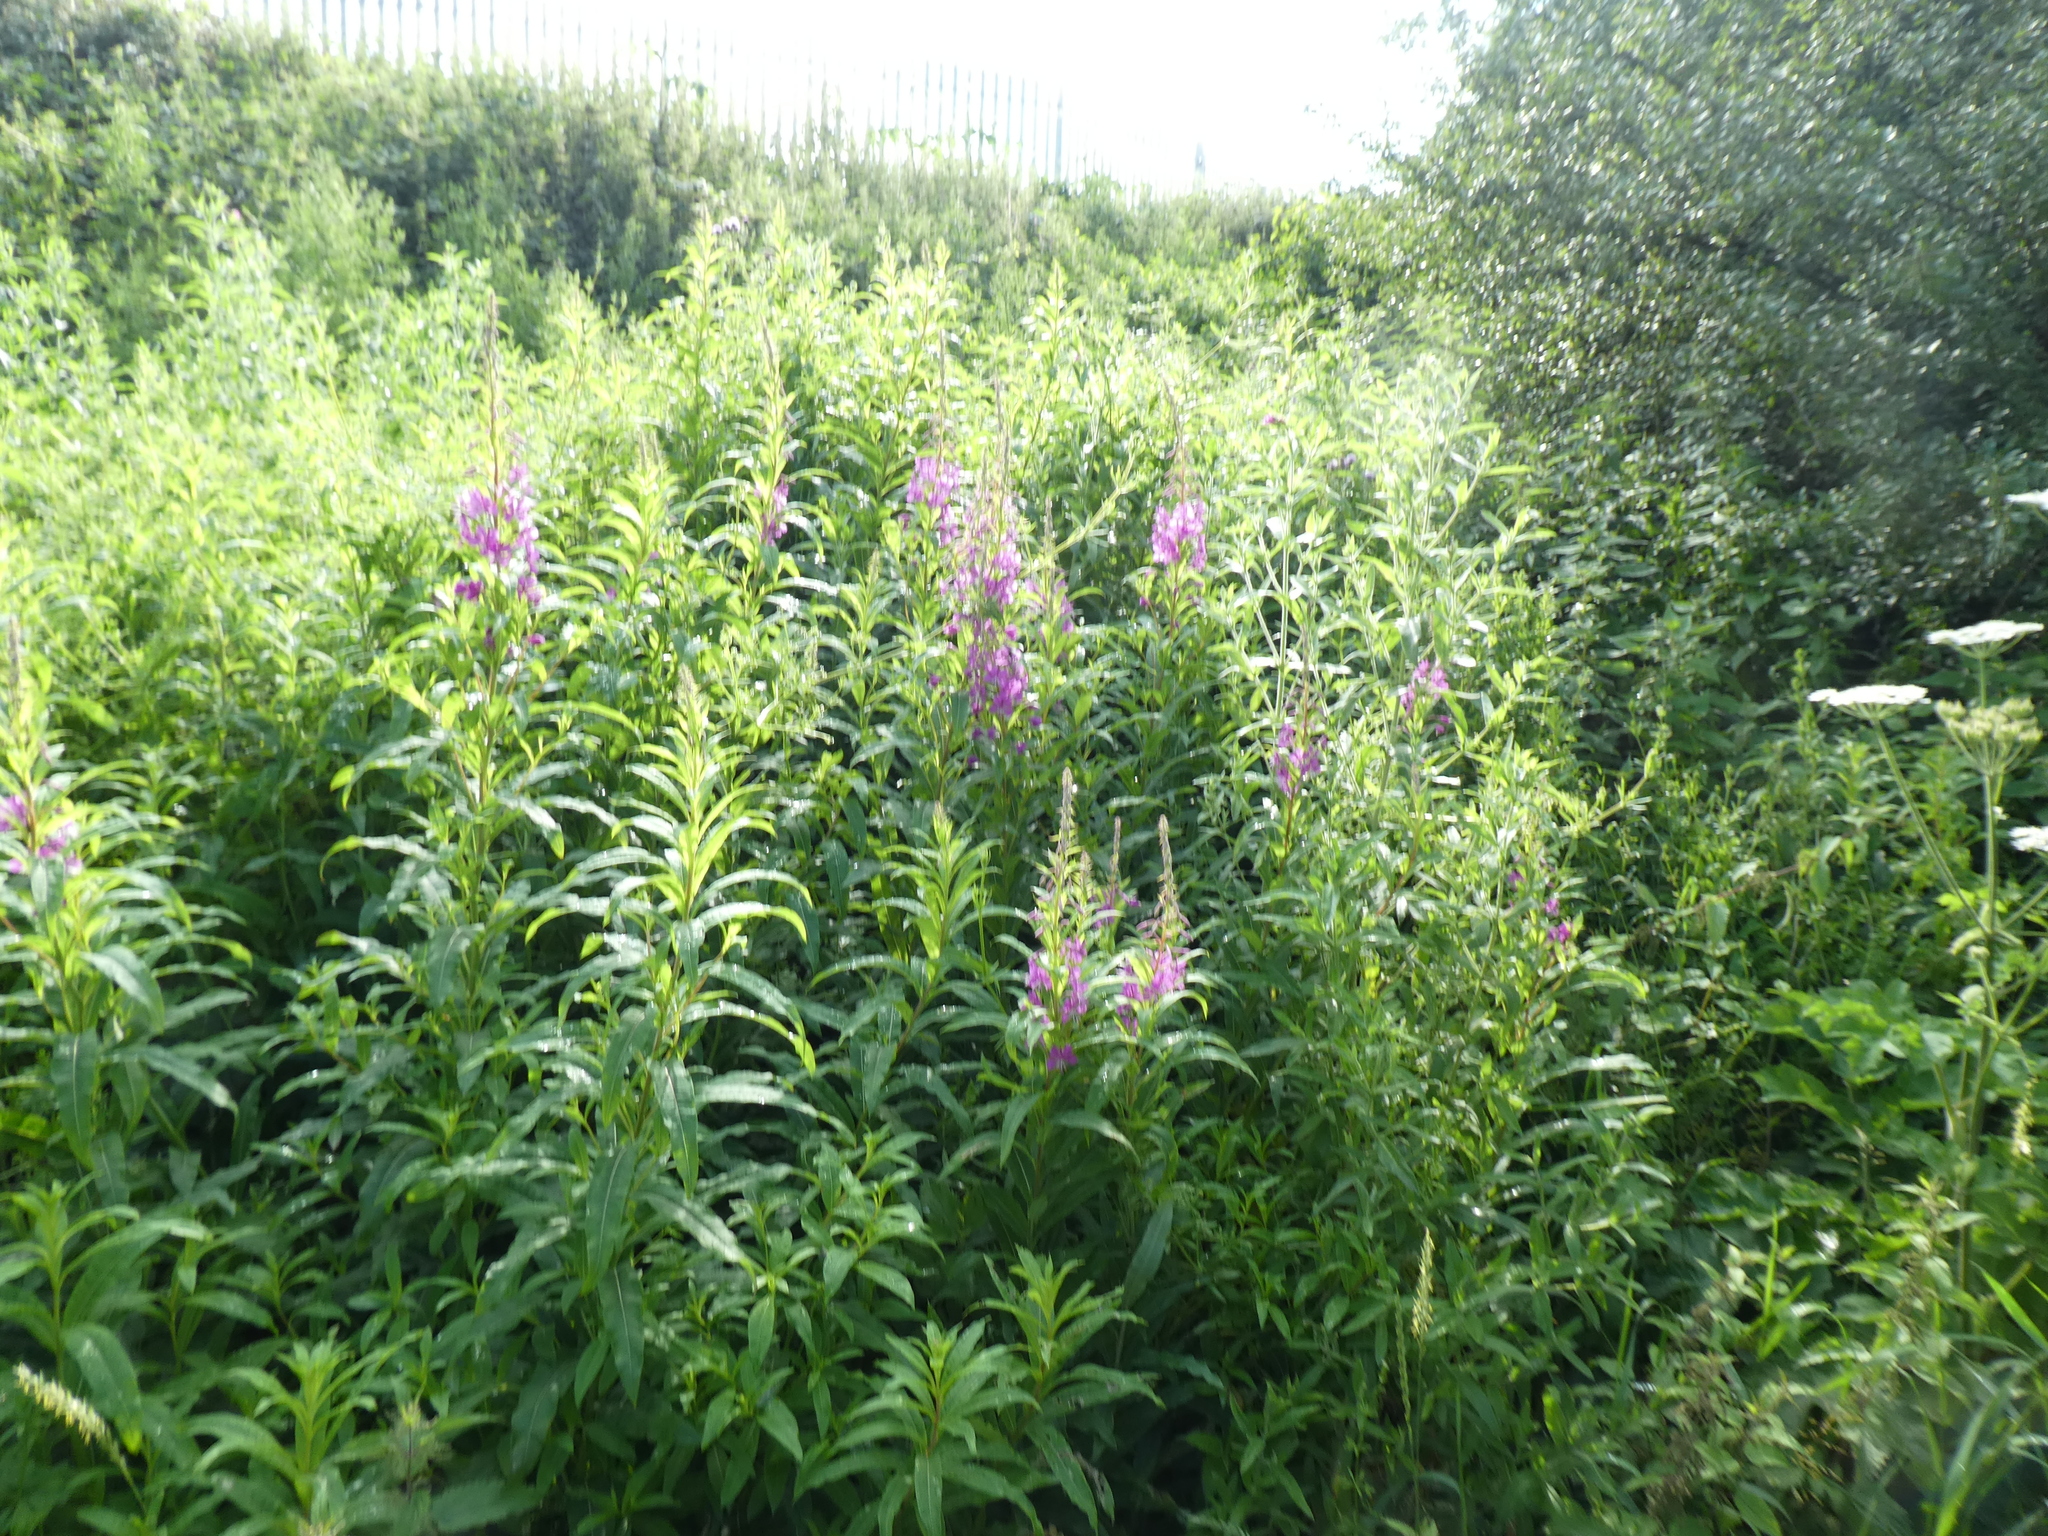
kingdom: Plantae
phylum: Tracheophyta
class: Magnoliopsida
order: Myrtales
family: Onagraceae
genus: Chamaenerion
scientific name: Chamaenerion angustifolium
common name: Fireweed
